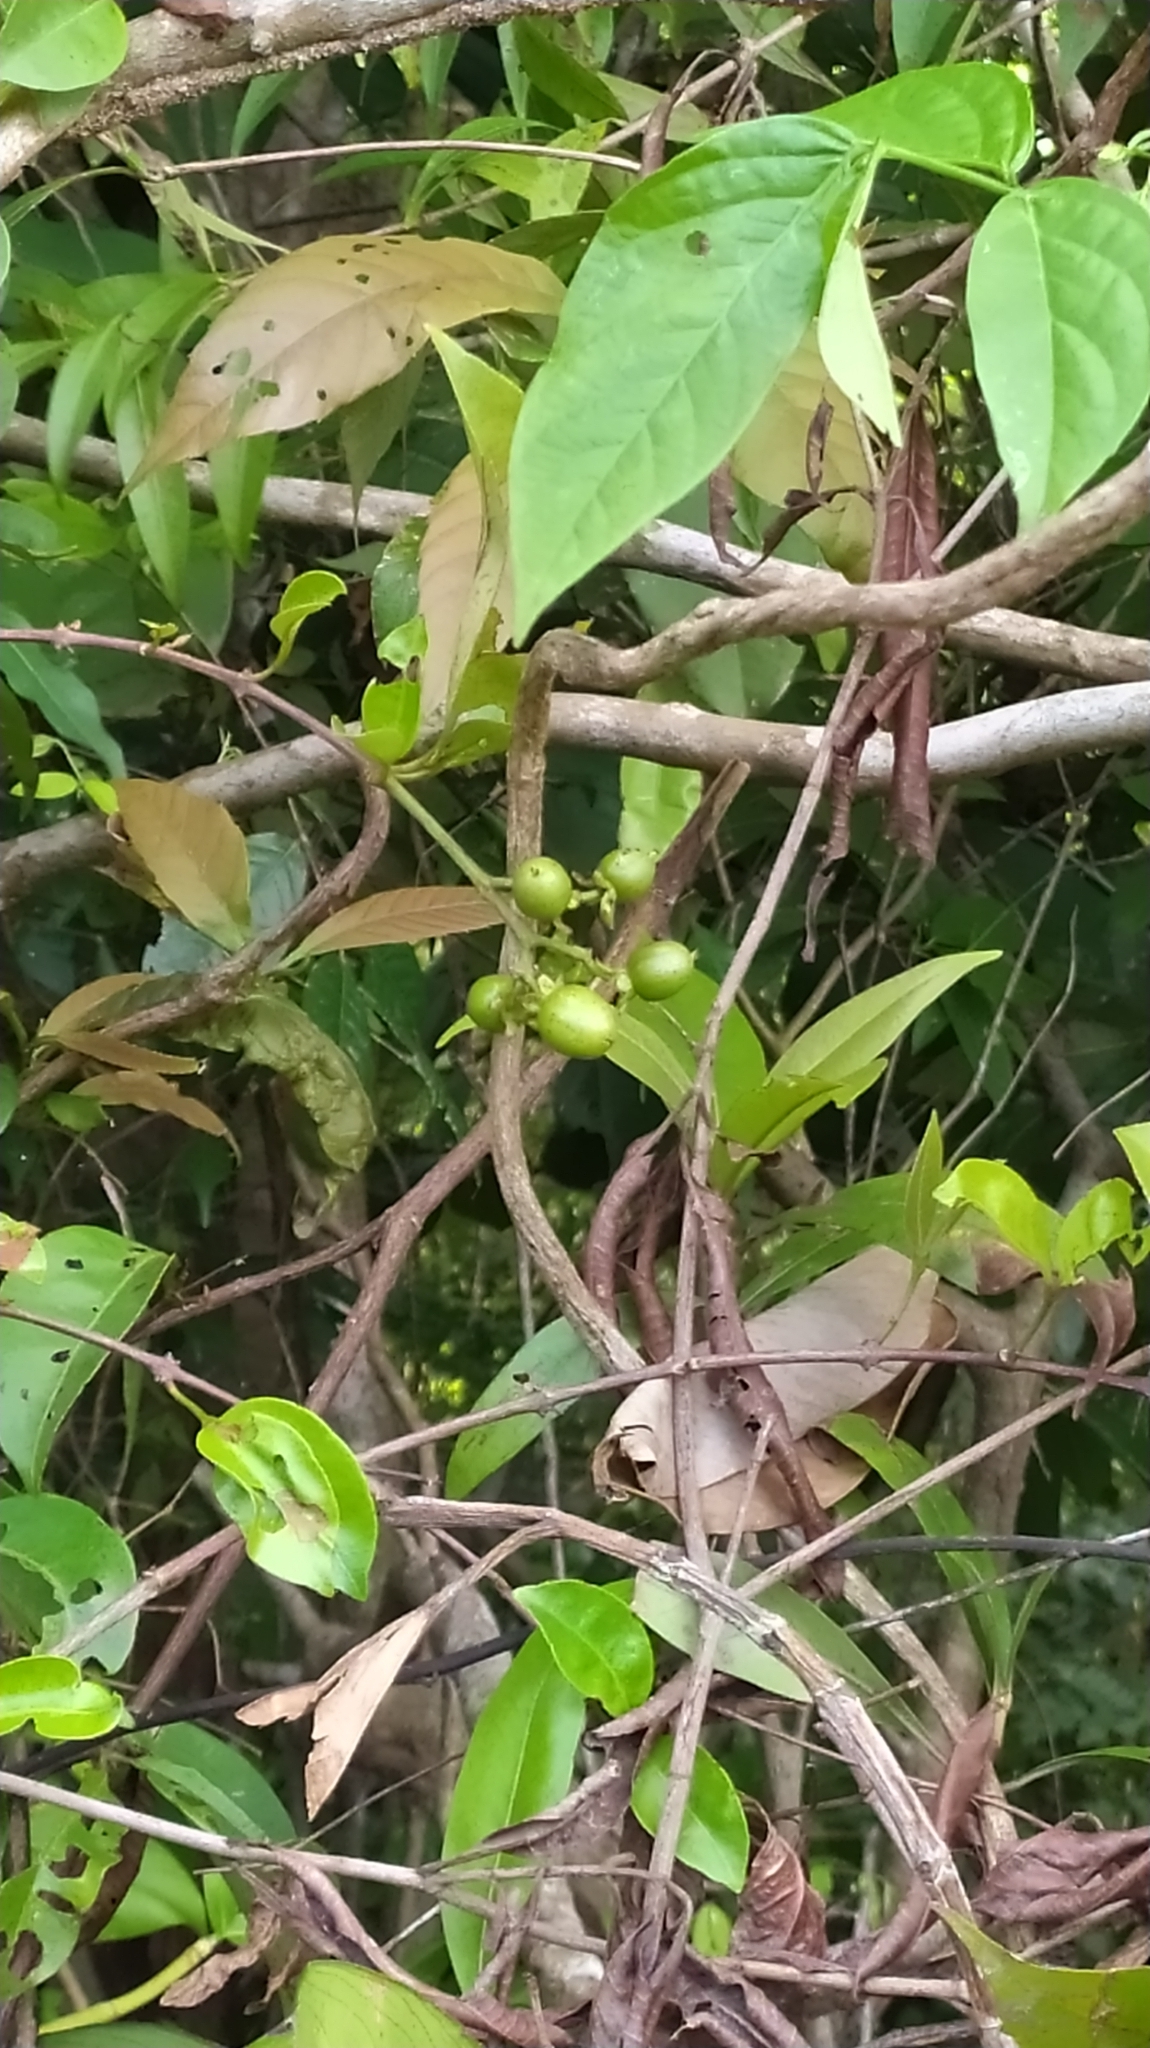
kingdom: Plantae
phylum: Tracheophyta
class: Magnoliopsida
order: Malpighiales
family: Hypericaceae
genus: Vismia
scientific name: Vismia cayennensis
